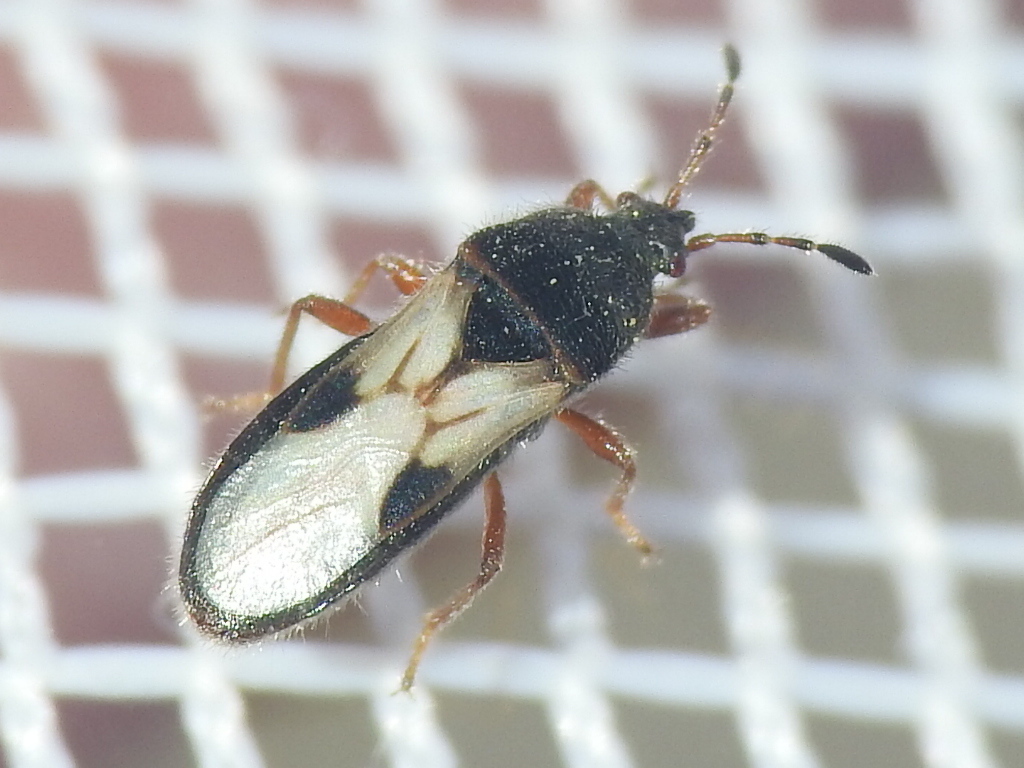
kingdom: Animalia
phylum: Arthropoda
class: Insecta
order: Hemiptera
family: Blissidae
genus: Blissus
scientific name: Blissus leucopterus
